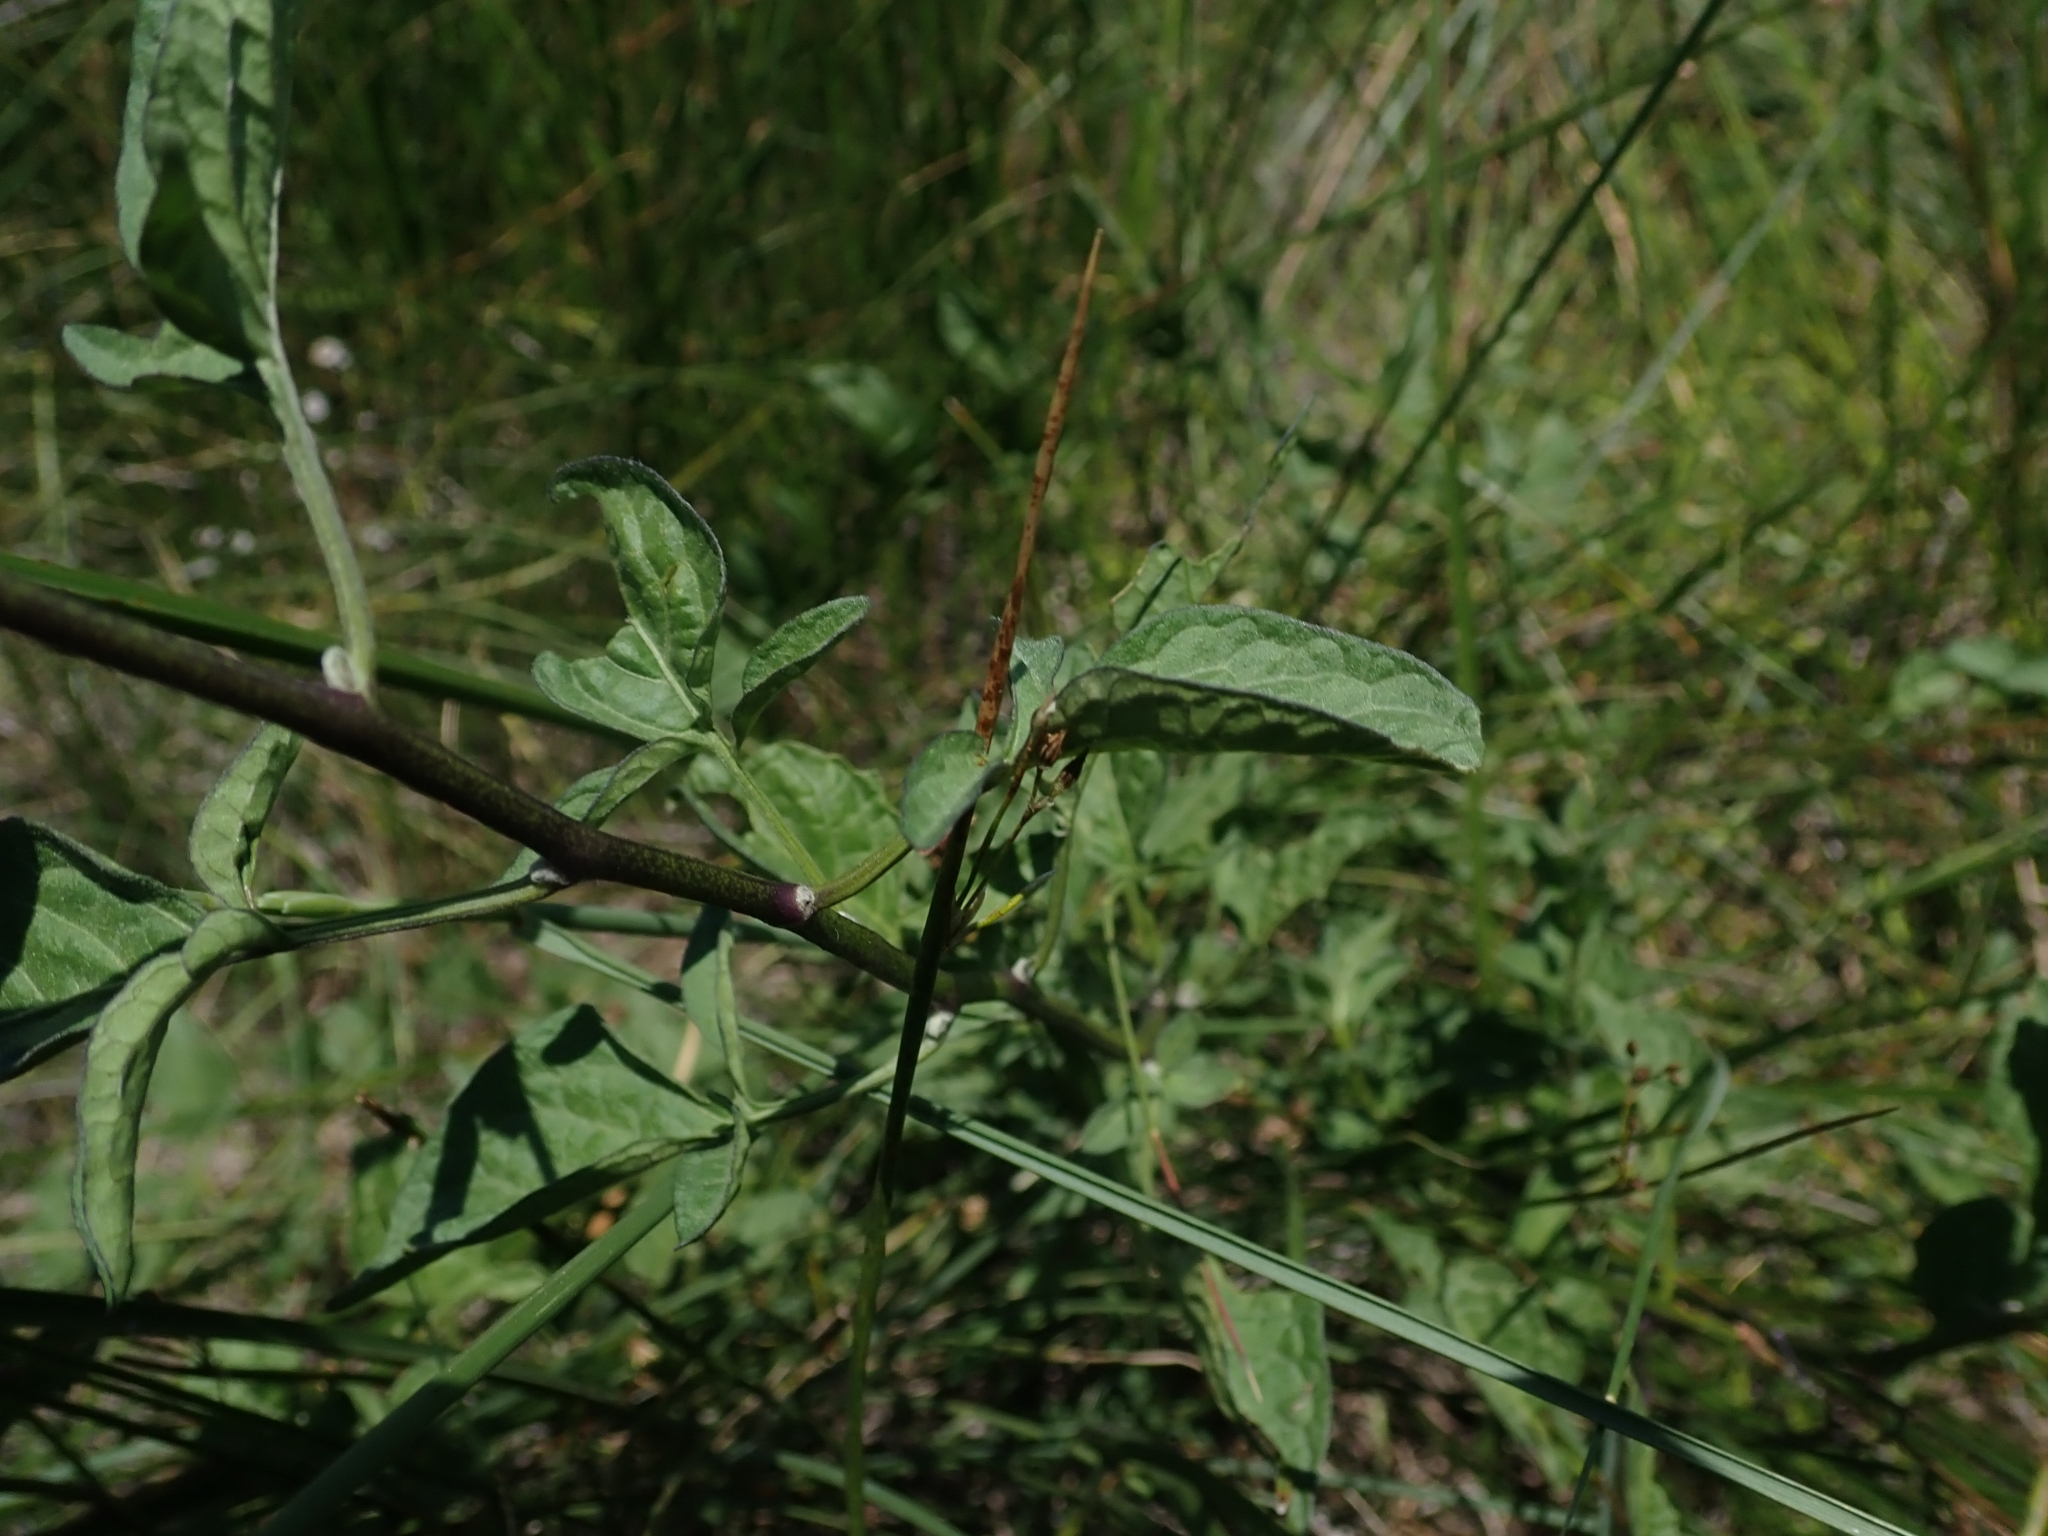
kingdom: Plantae
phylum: Tracheophyta
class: Magnoliopsida
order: Solanales
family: Solanaceae
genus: Solanum
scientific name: Solanum dulcamara
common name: Climbing nightshade
